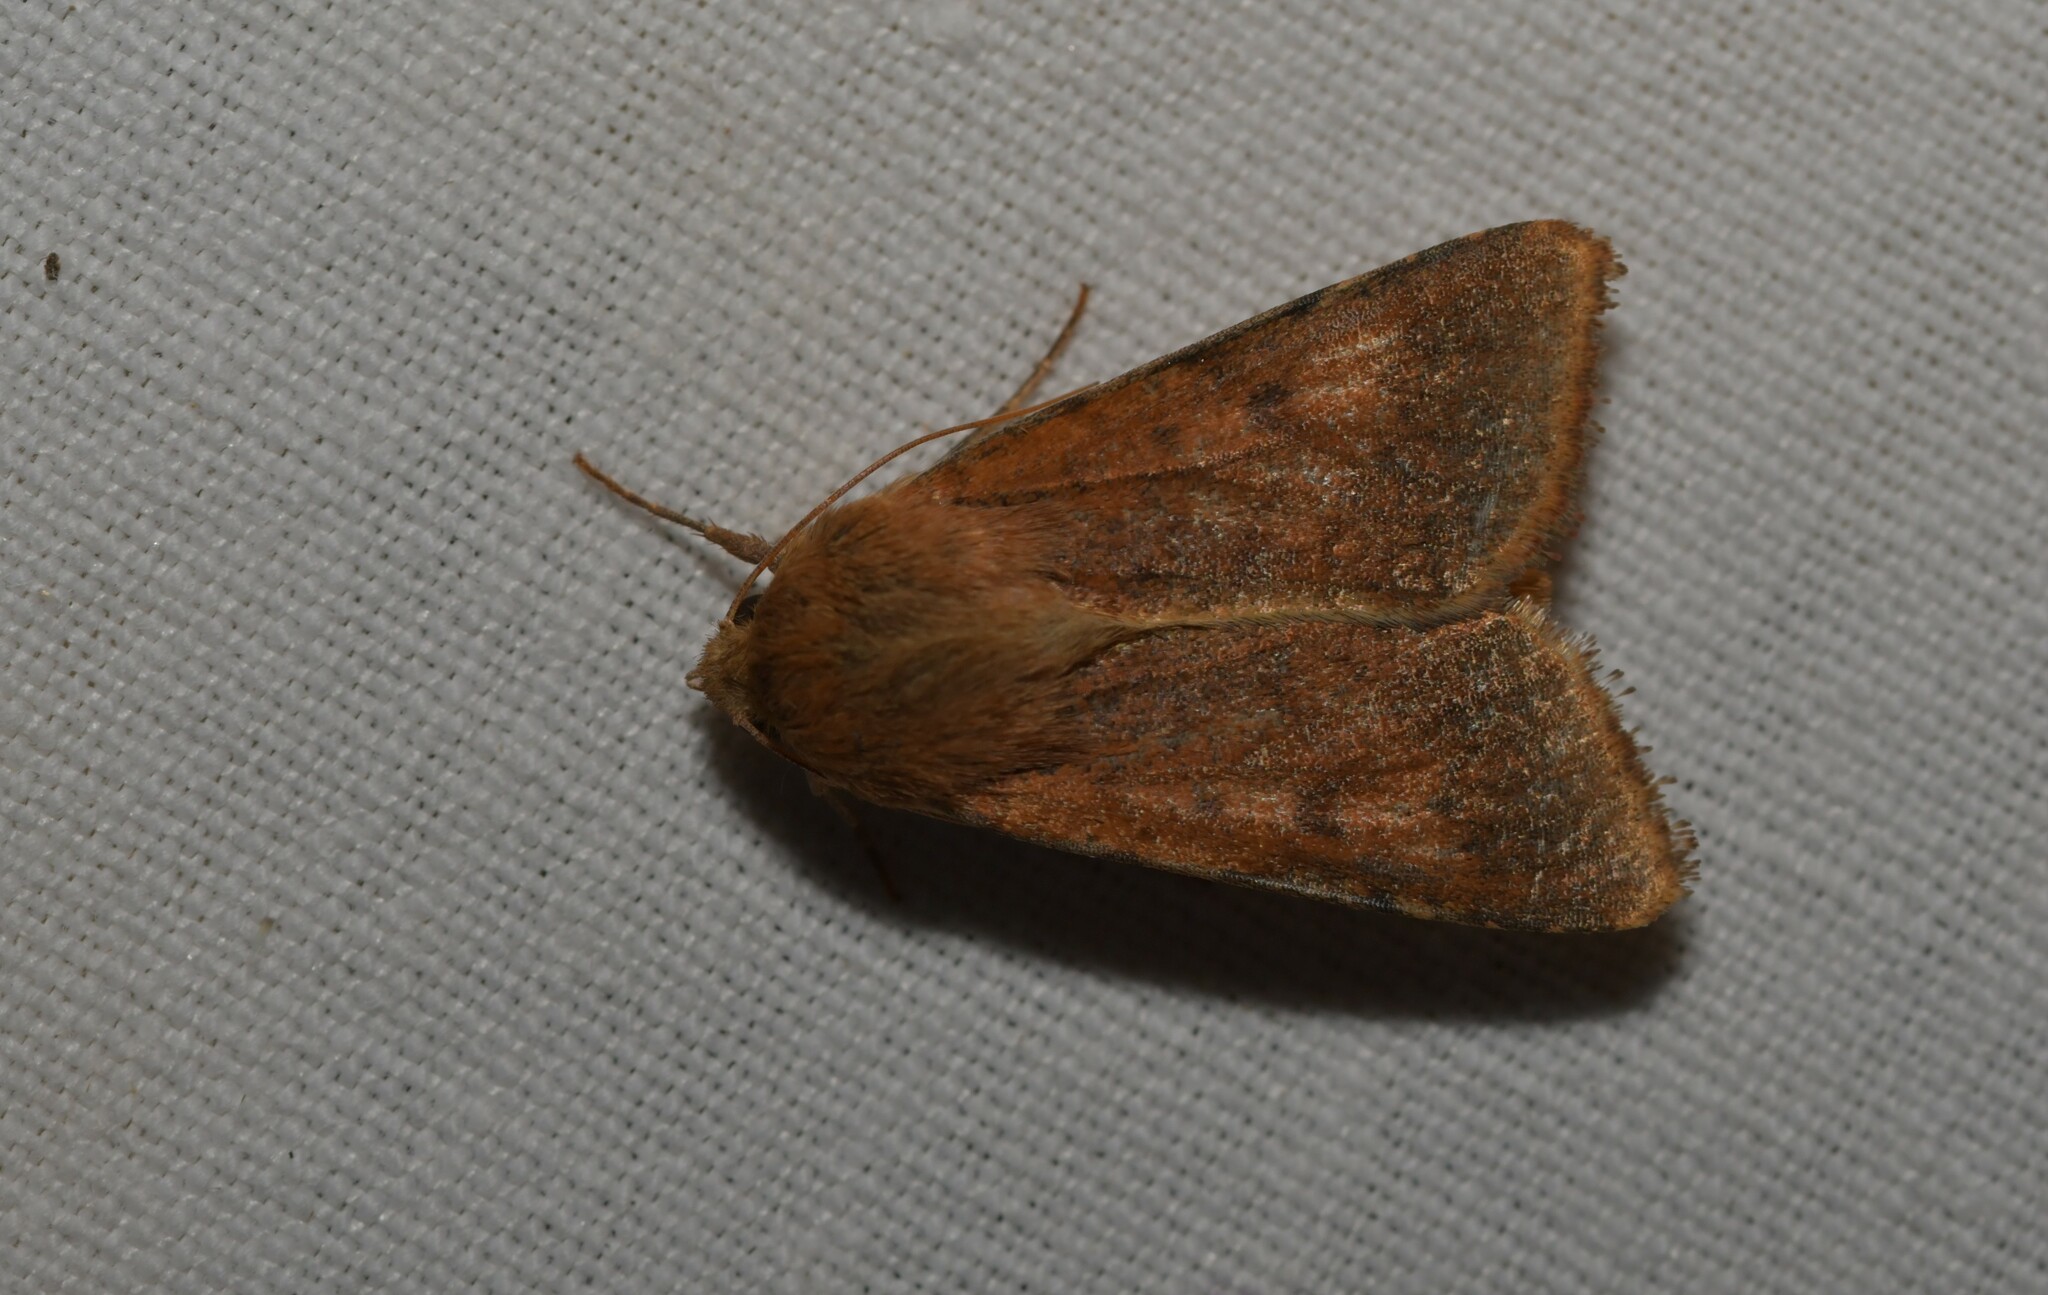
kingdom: Animalia
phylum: Arthropoda
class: Insecta
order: Lepidoptera
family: Noctuidae
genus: Helicoverpa
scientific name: Helicoverpa armigera
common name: Cotton bollworm
